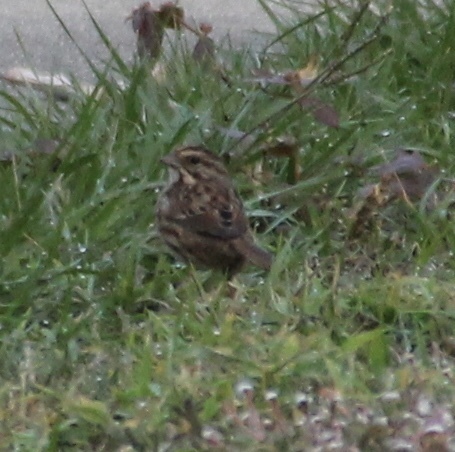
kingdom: Animalia
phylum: Chordata
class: Aves
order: Passeriformes
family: Passerellidae
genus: Melospiza
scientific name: Melospiza melodia
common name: Song sparrow
